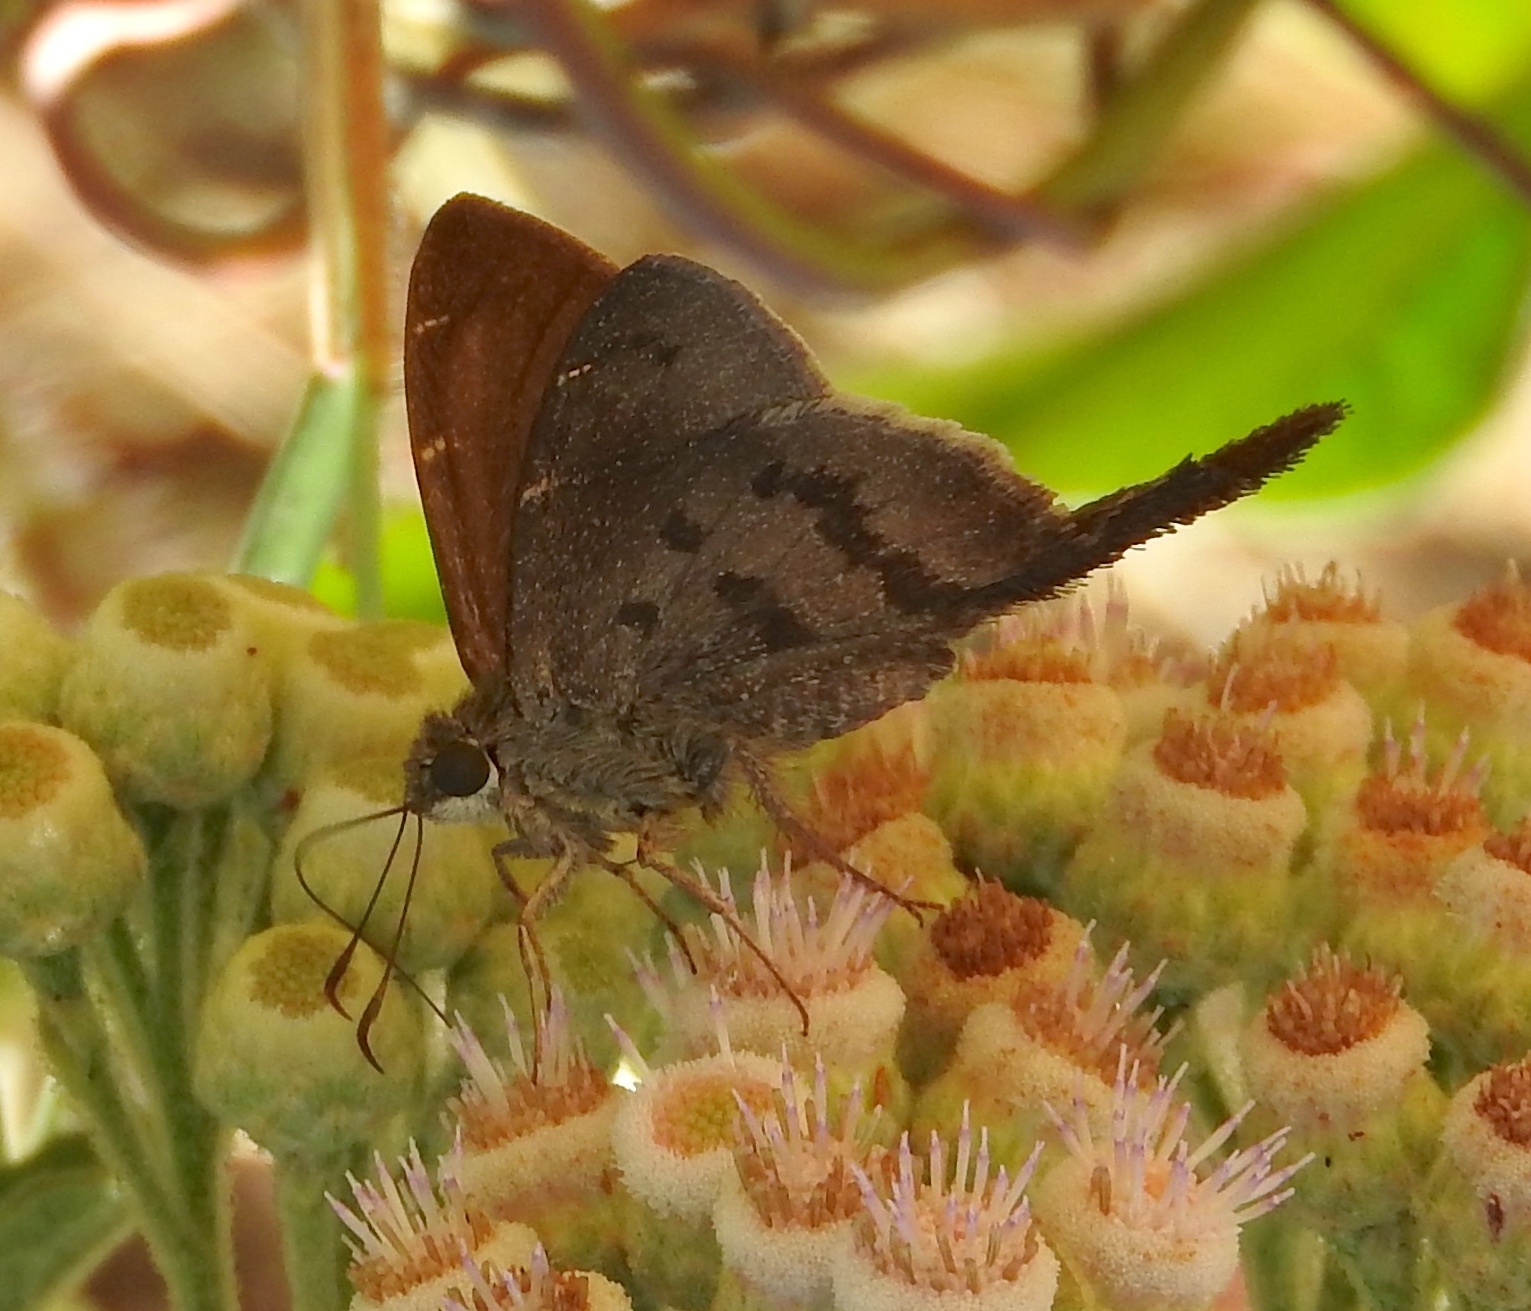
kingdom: Animalia
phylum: Arthropoda
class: Insecta
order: Lepidoptera
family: Hesperiidae
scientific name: Hesperiidae
